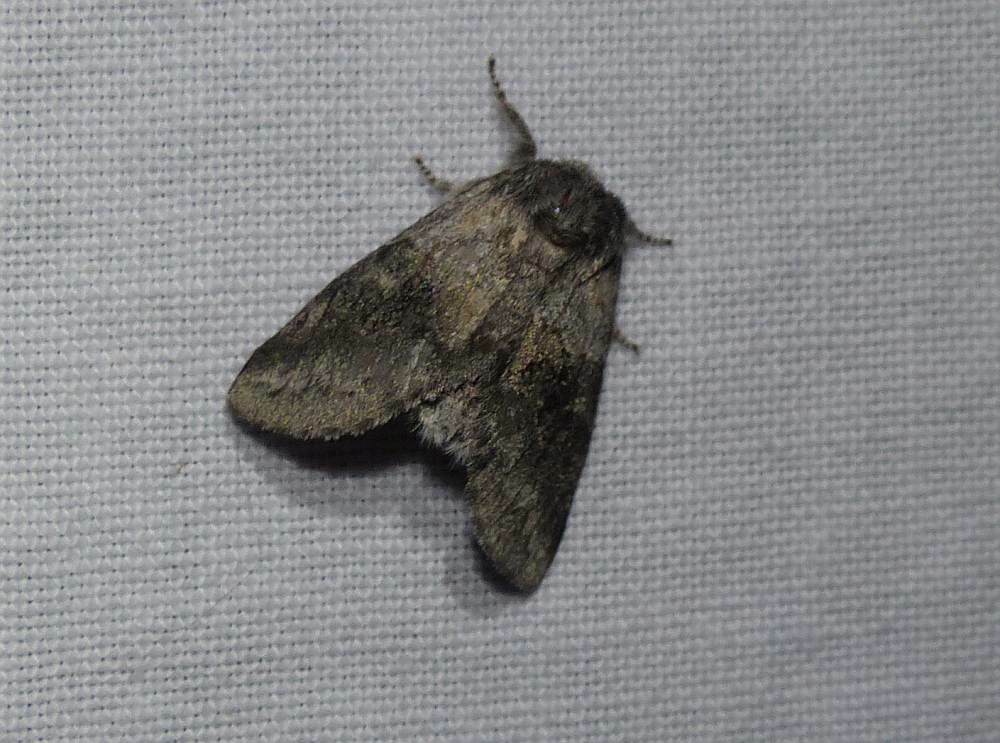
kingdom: Animalia
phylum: Arthropoda
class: Insecta
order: Lepidoptera
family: Notodontidae
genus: Gluphisia
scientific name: Gluphisia septentrionis
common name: Common gluphisia
